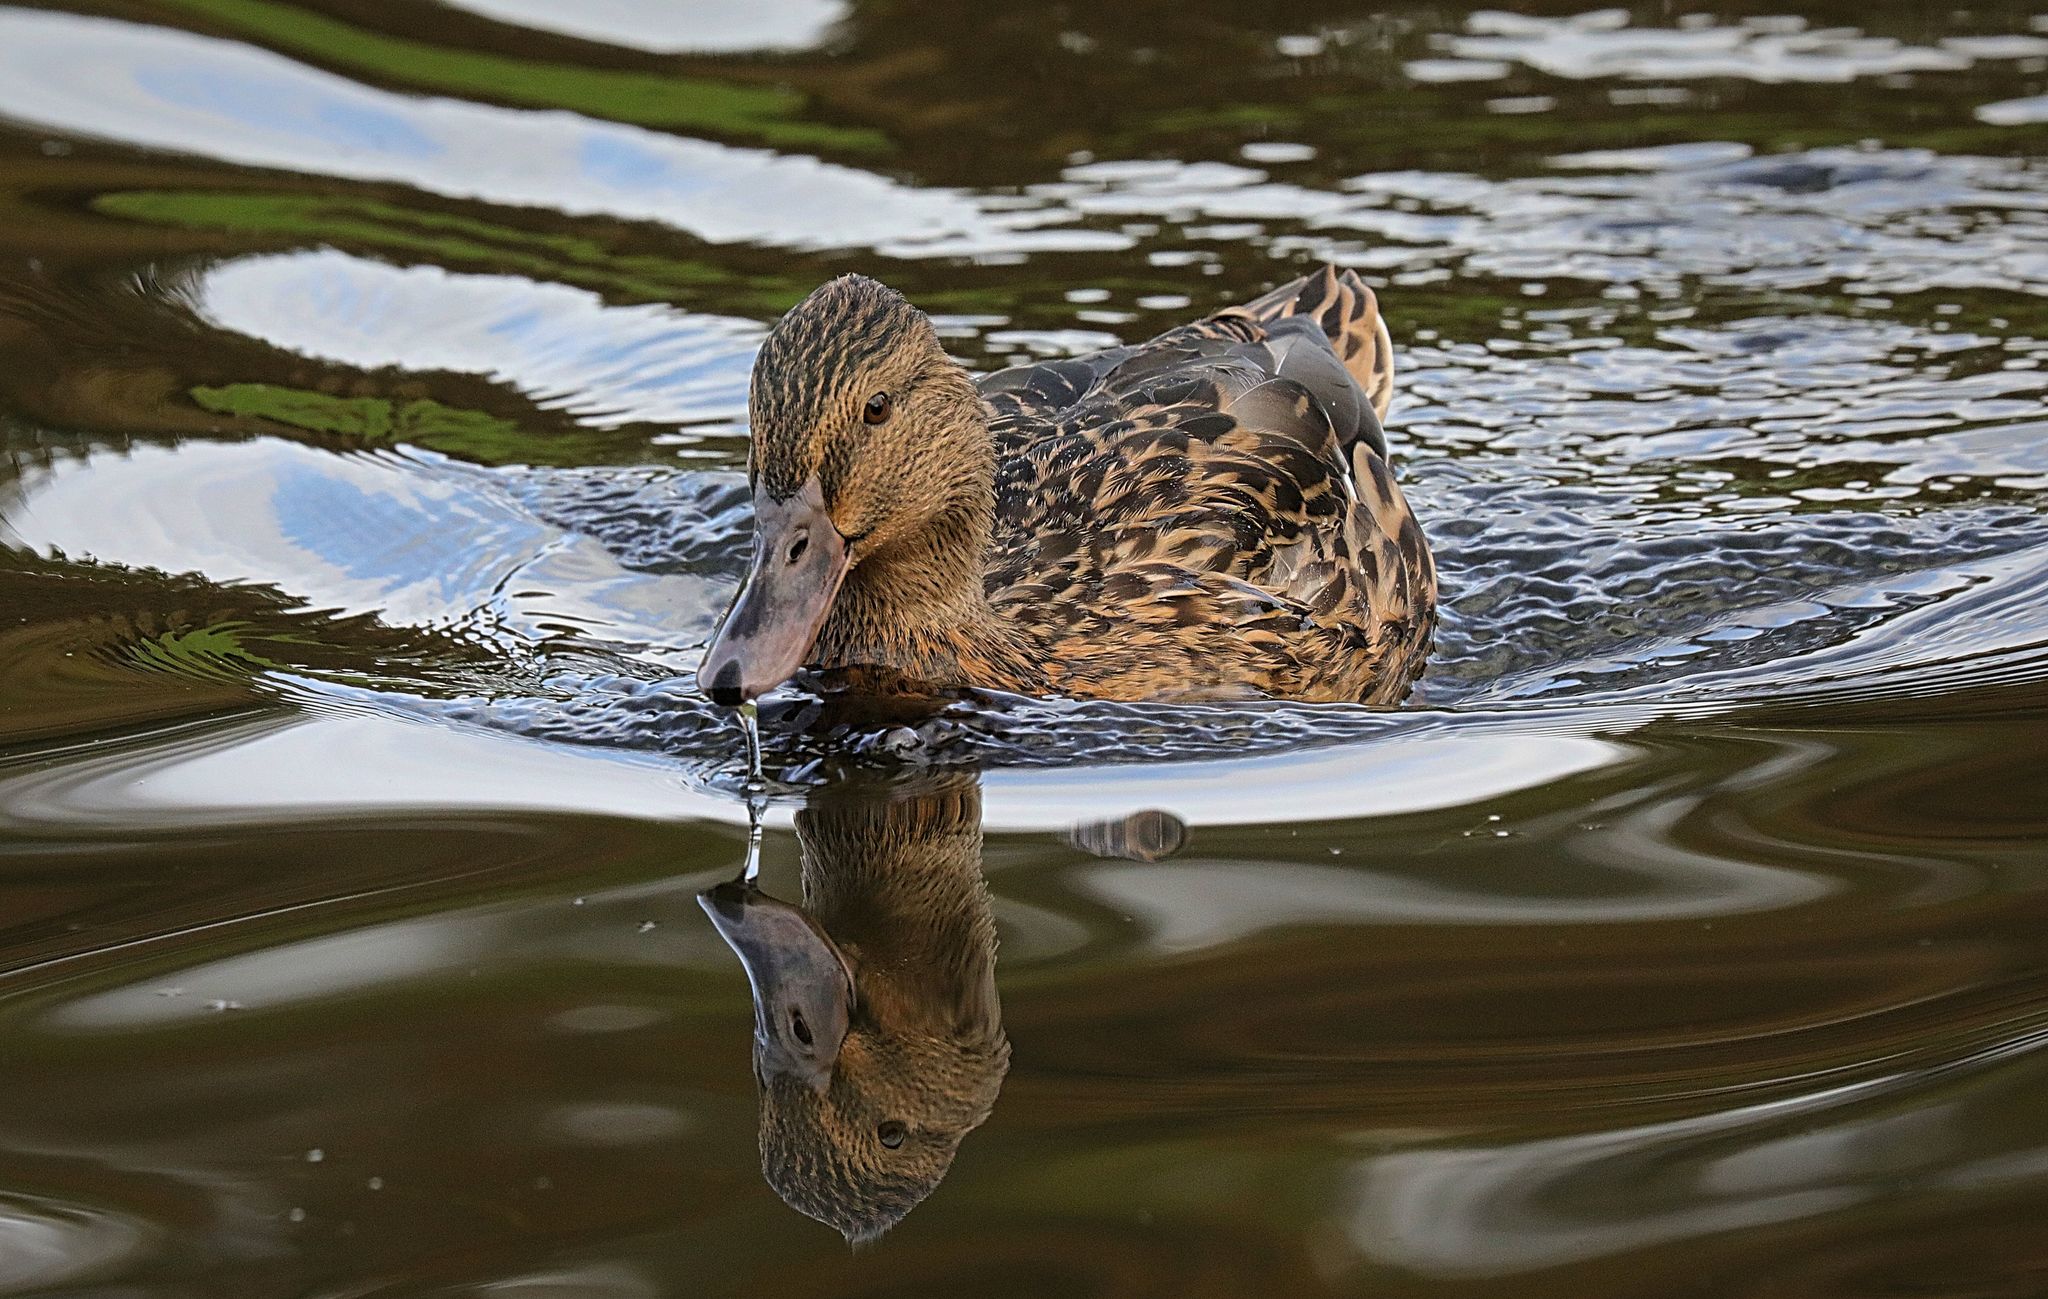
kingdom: Animalia
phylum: Chordata
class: Aves
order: Anseriformes
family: Anatidae
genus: Anas
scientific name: Anas platyrhynchos
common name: Mallard
